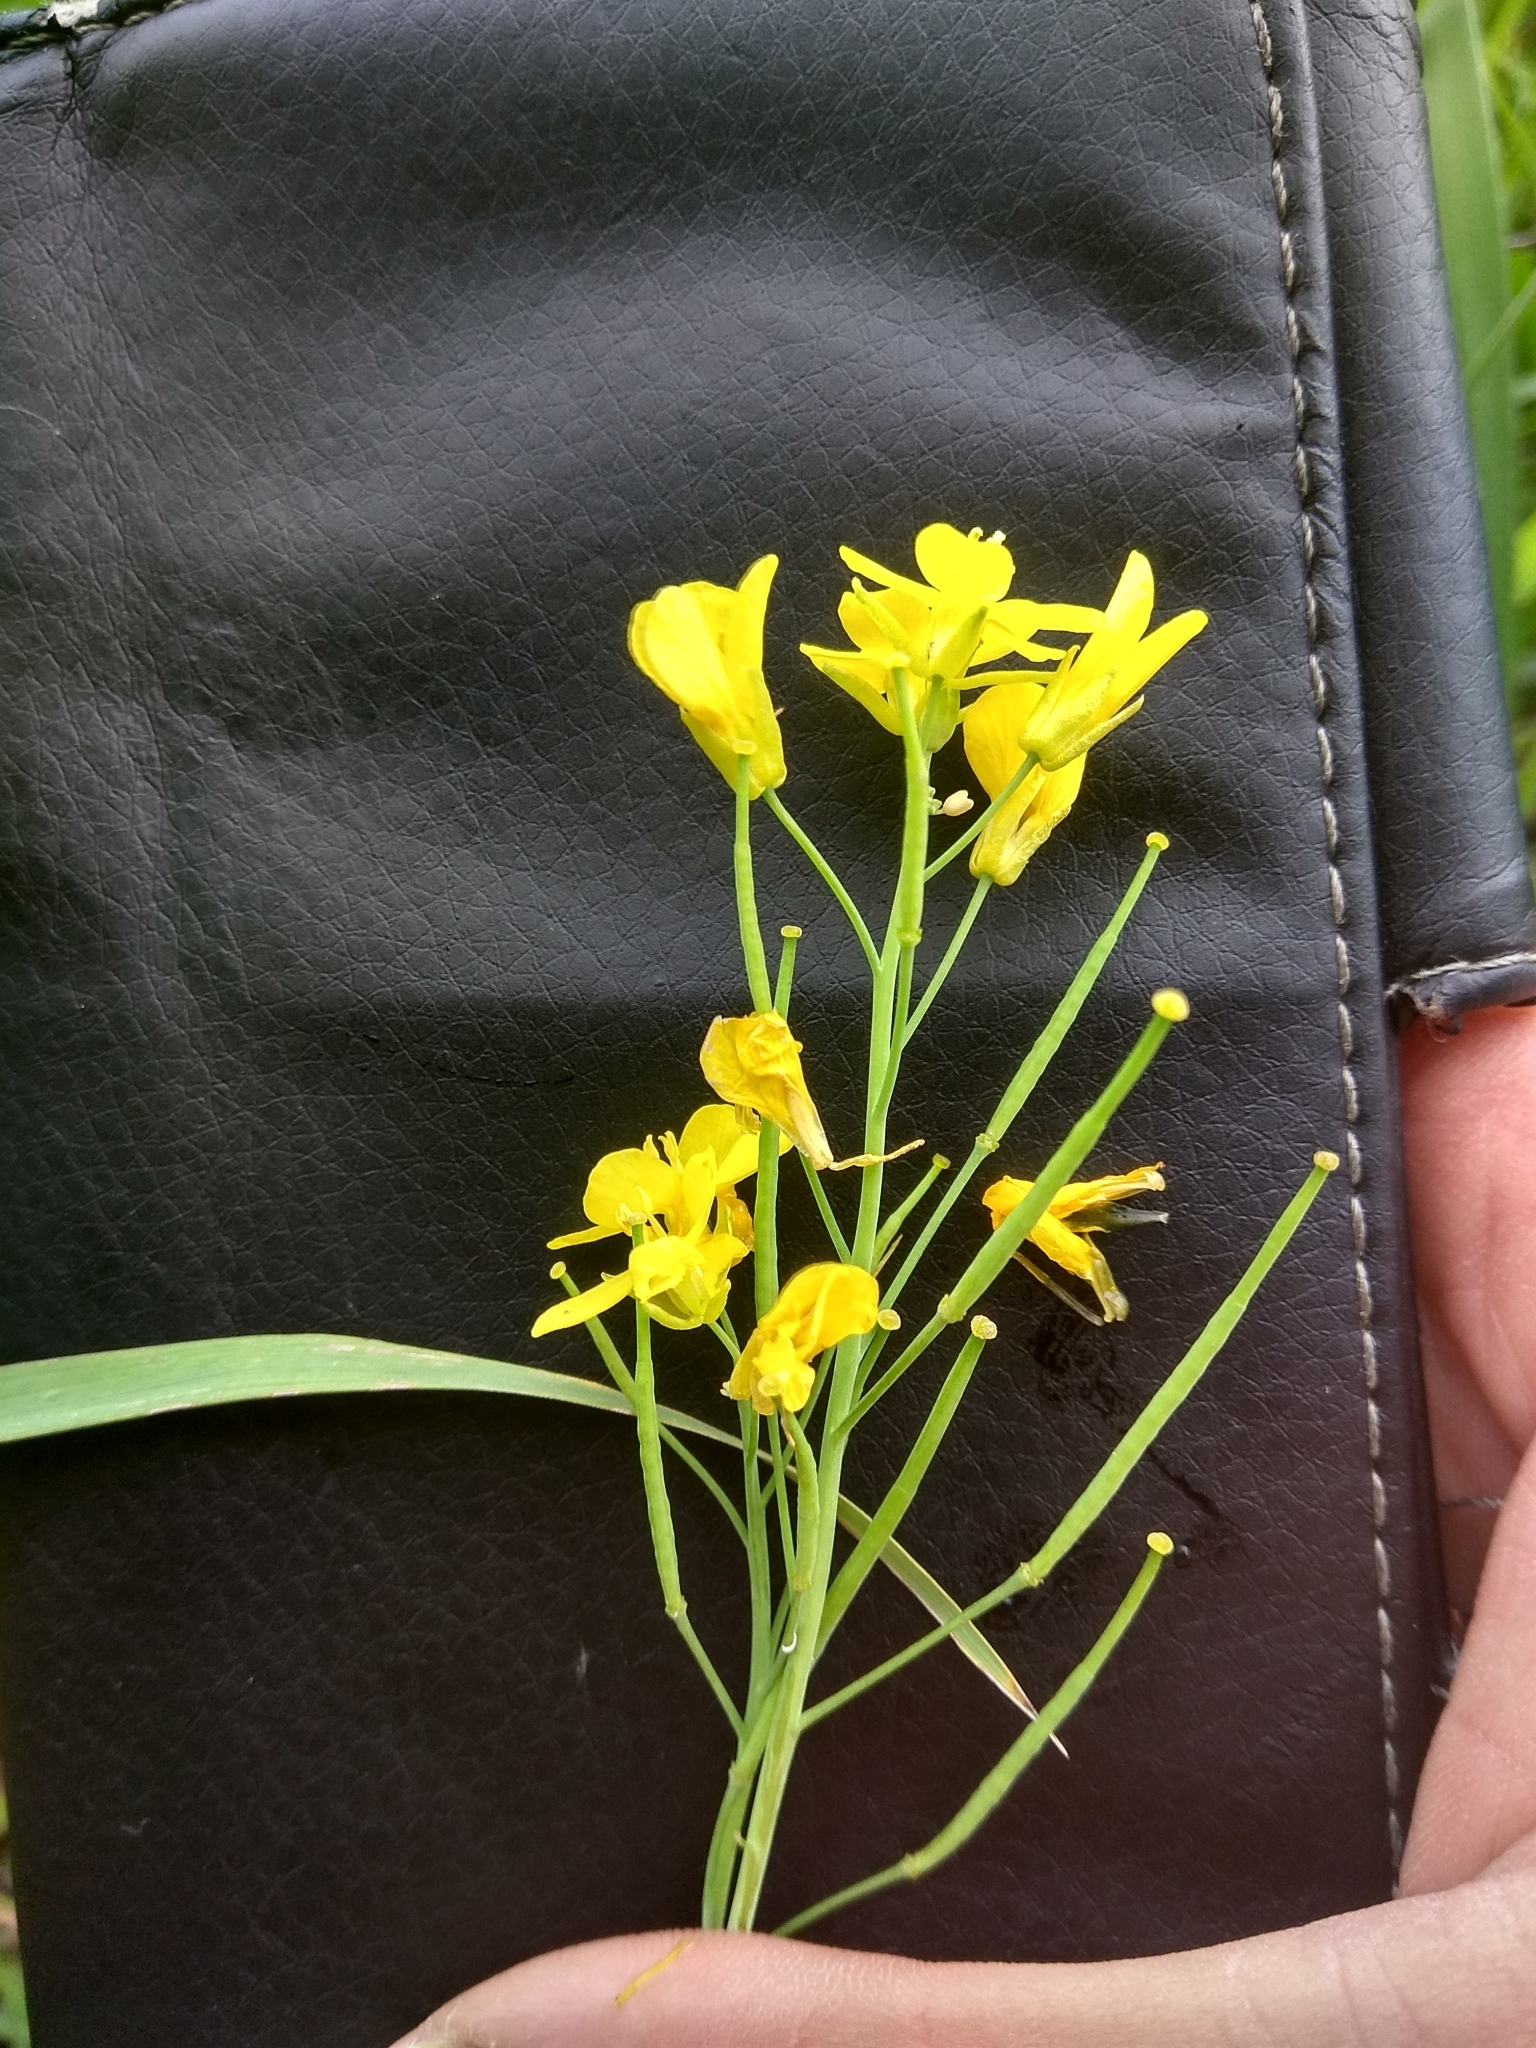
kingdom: Plantae
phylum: Tracheophyta
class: Magnoliopsida
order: Brassicales
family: Brassicaceae
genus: Brassica
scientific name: Brassica rapa
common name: Field mustard
